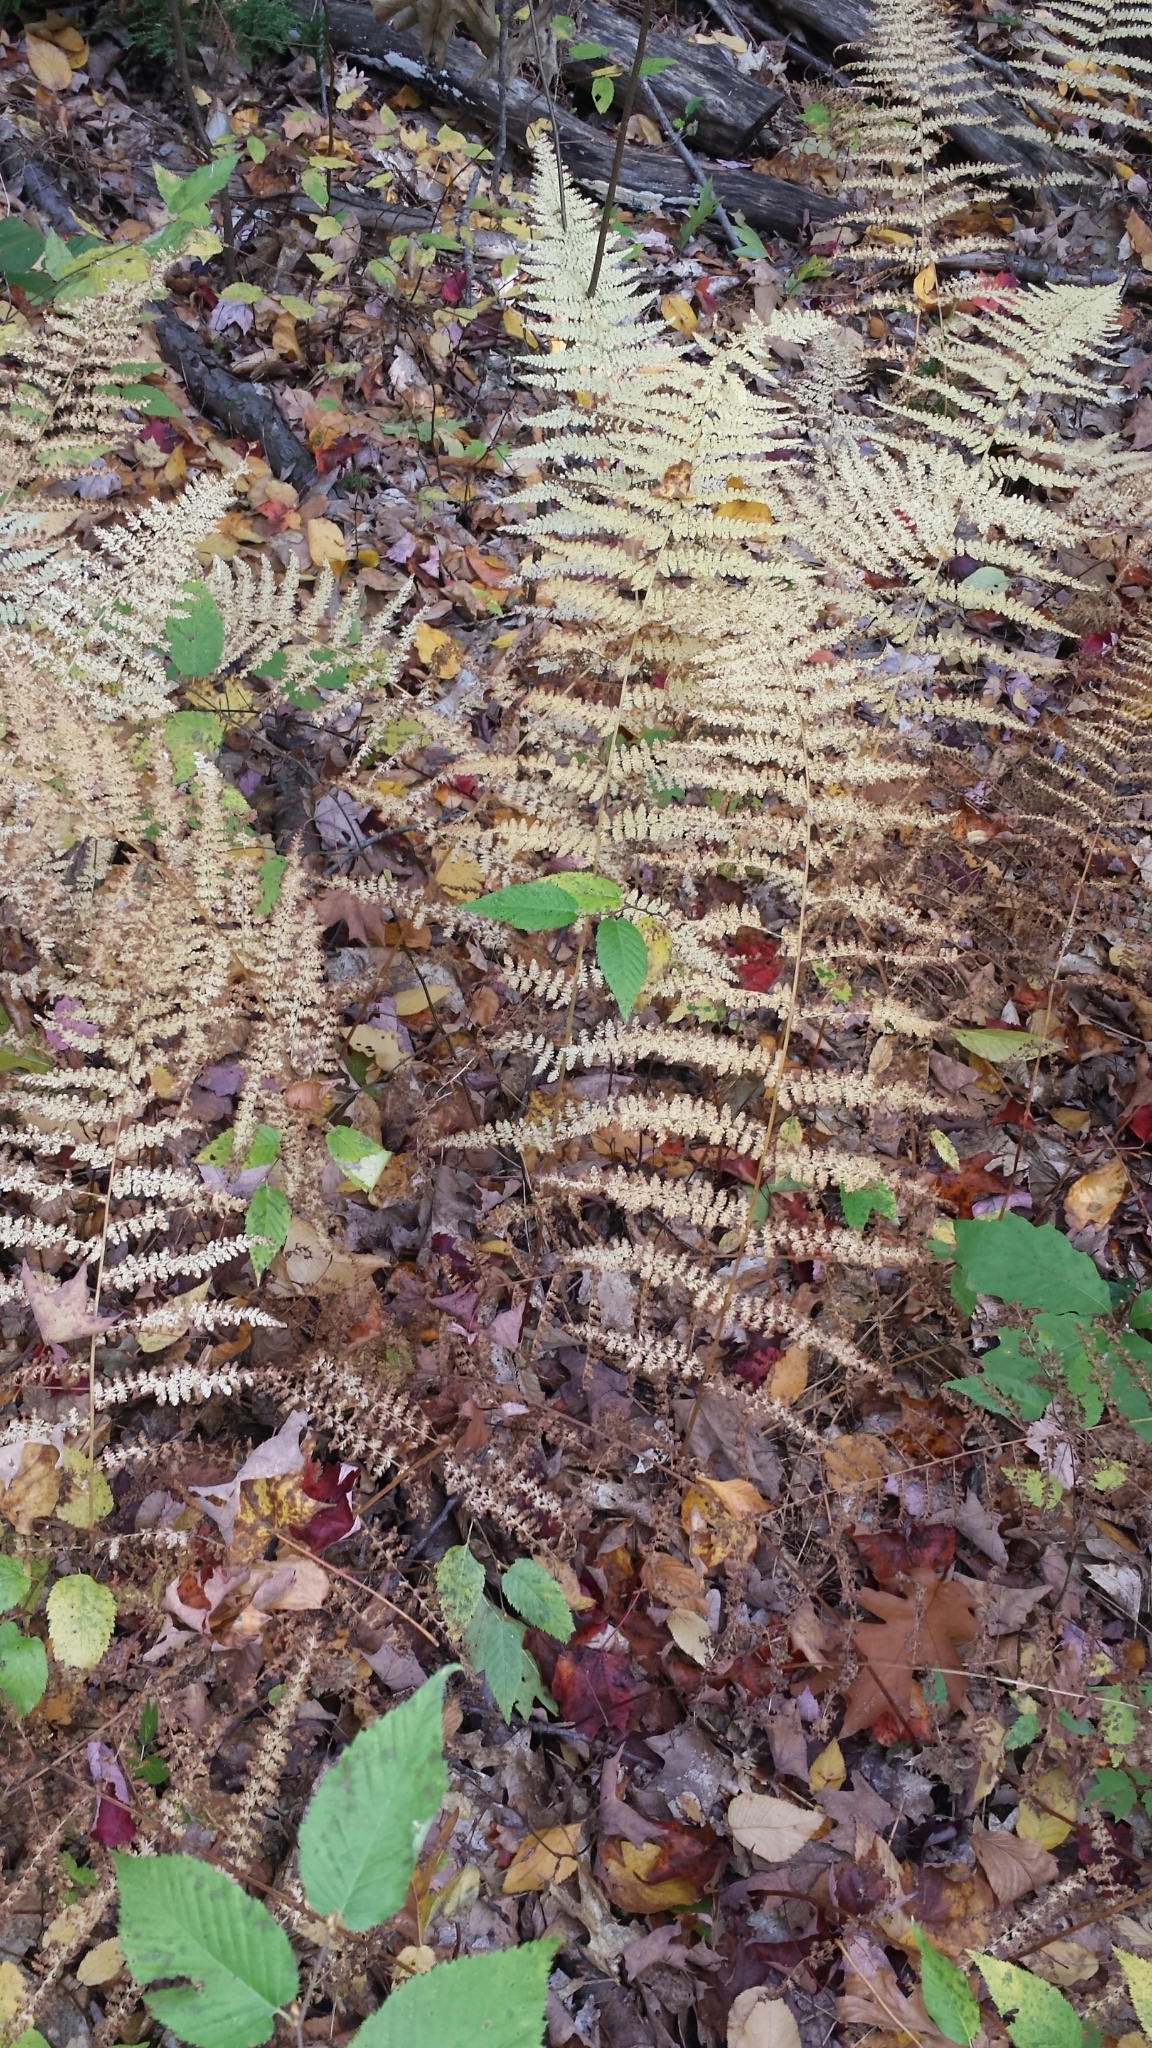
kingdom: Plantae
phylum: Tracheophyta
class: Polypodiopsida
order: Polypodiales
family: Dennstaedtiaceae
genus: Sitobolium
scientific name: Sitobolium punctilobum
